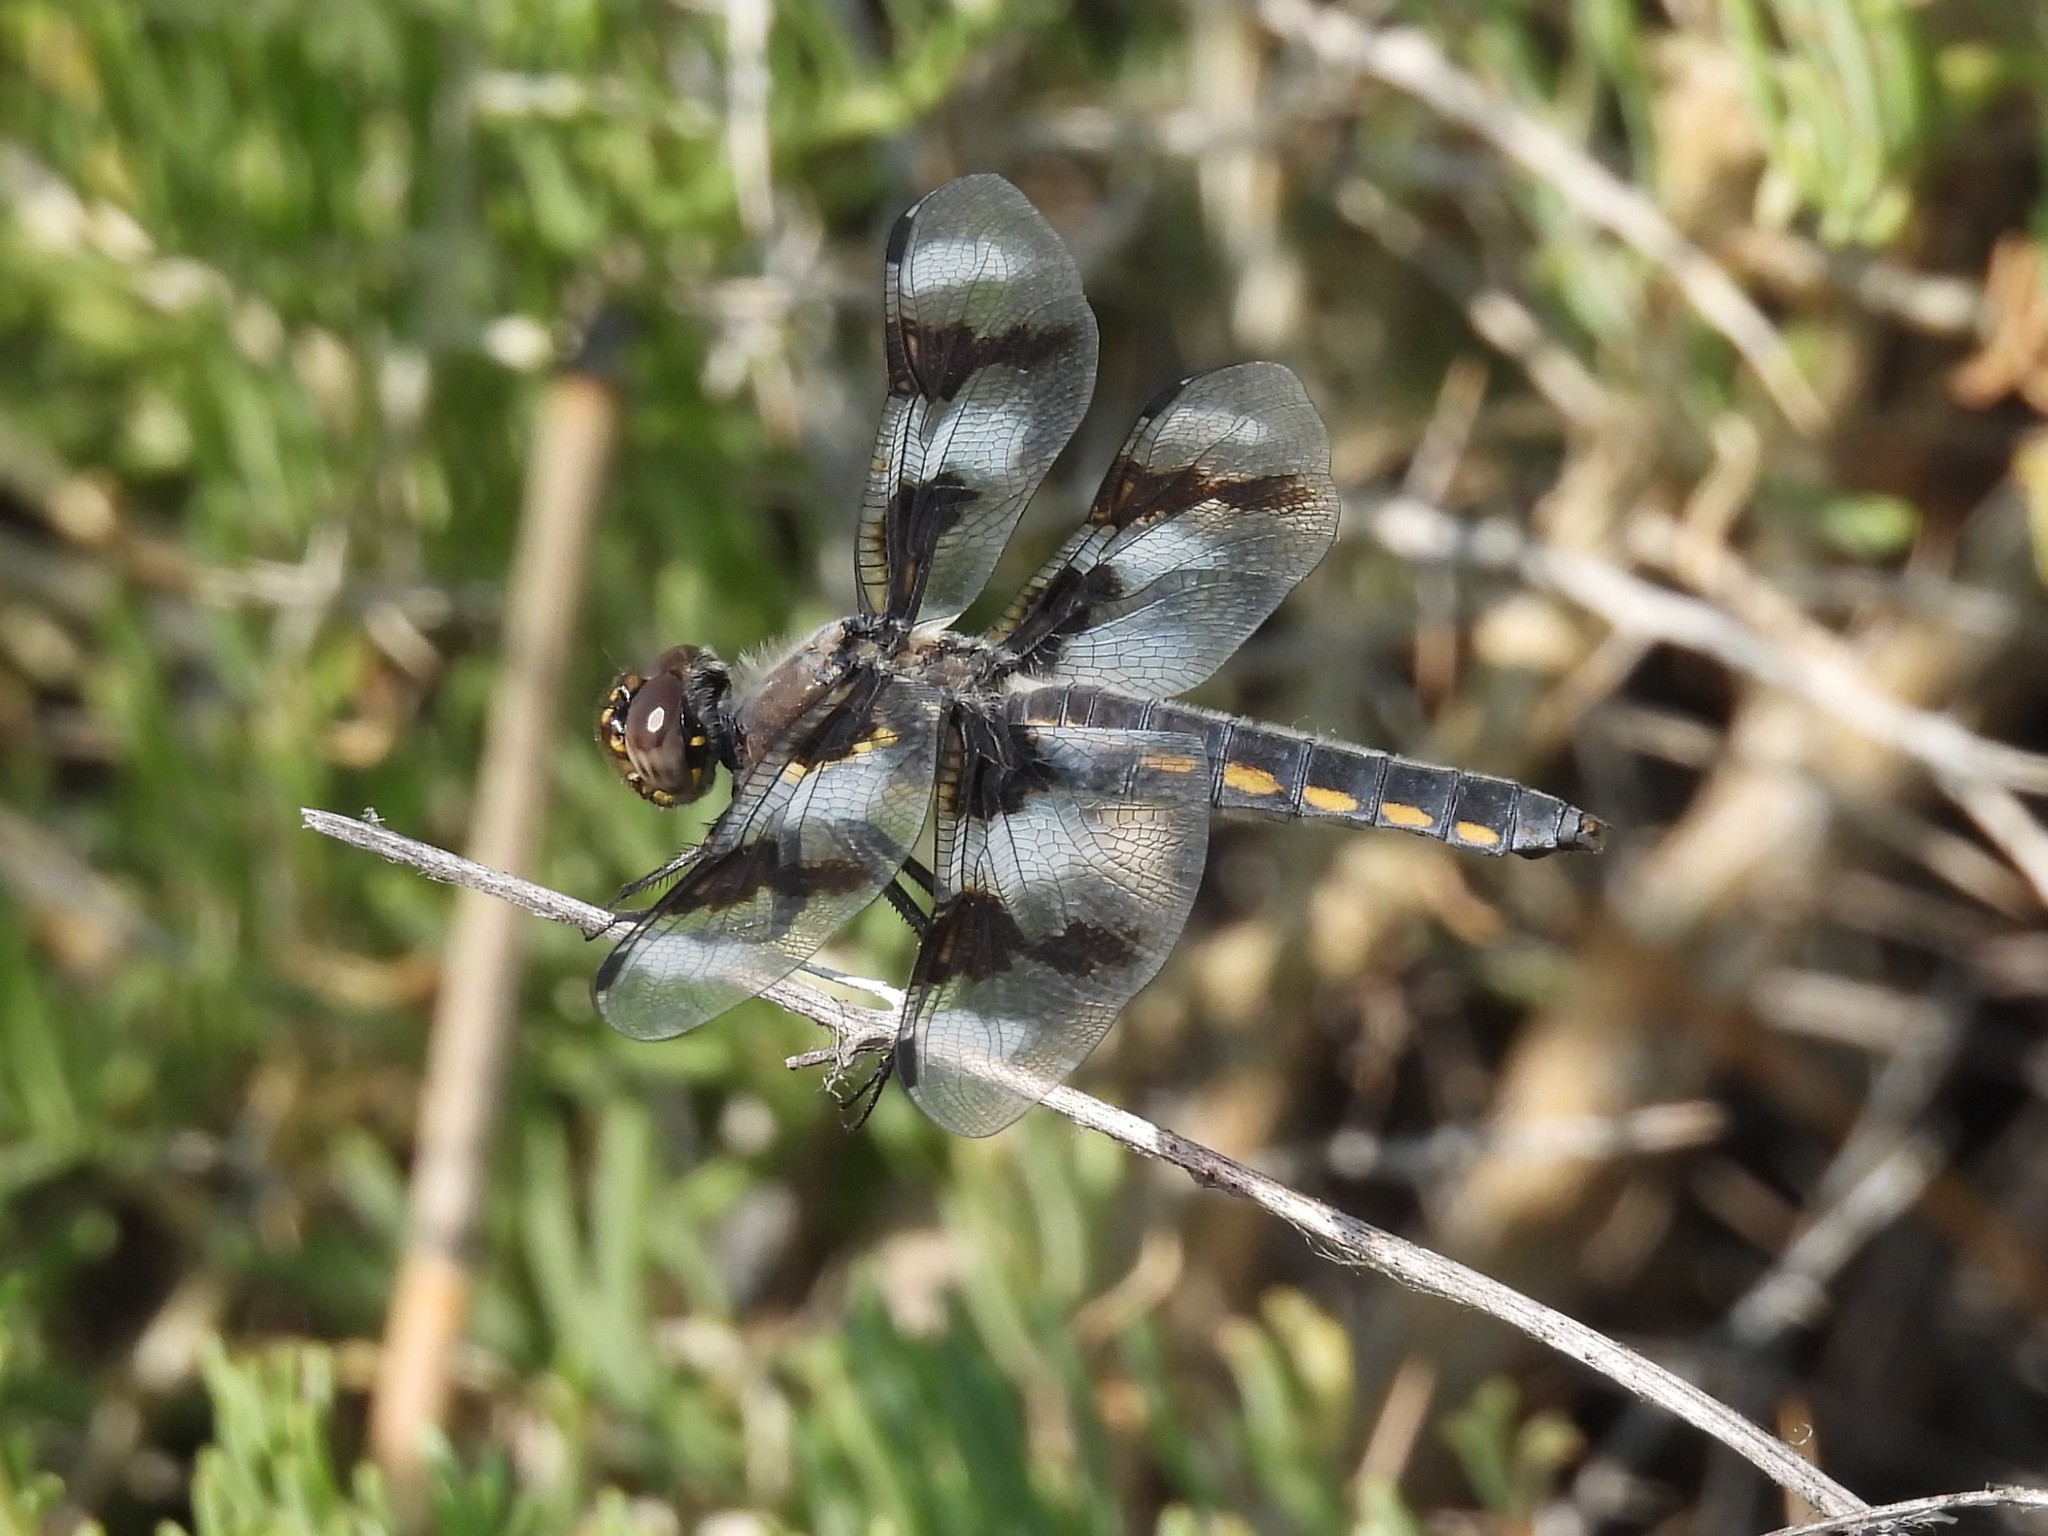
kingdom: Animalia
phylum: Arthropoda
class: Insecta
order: Odonata
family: Libellulidae
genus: Libellula
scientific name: Libellula forensis
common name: Eight-spotted skimmer
